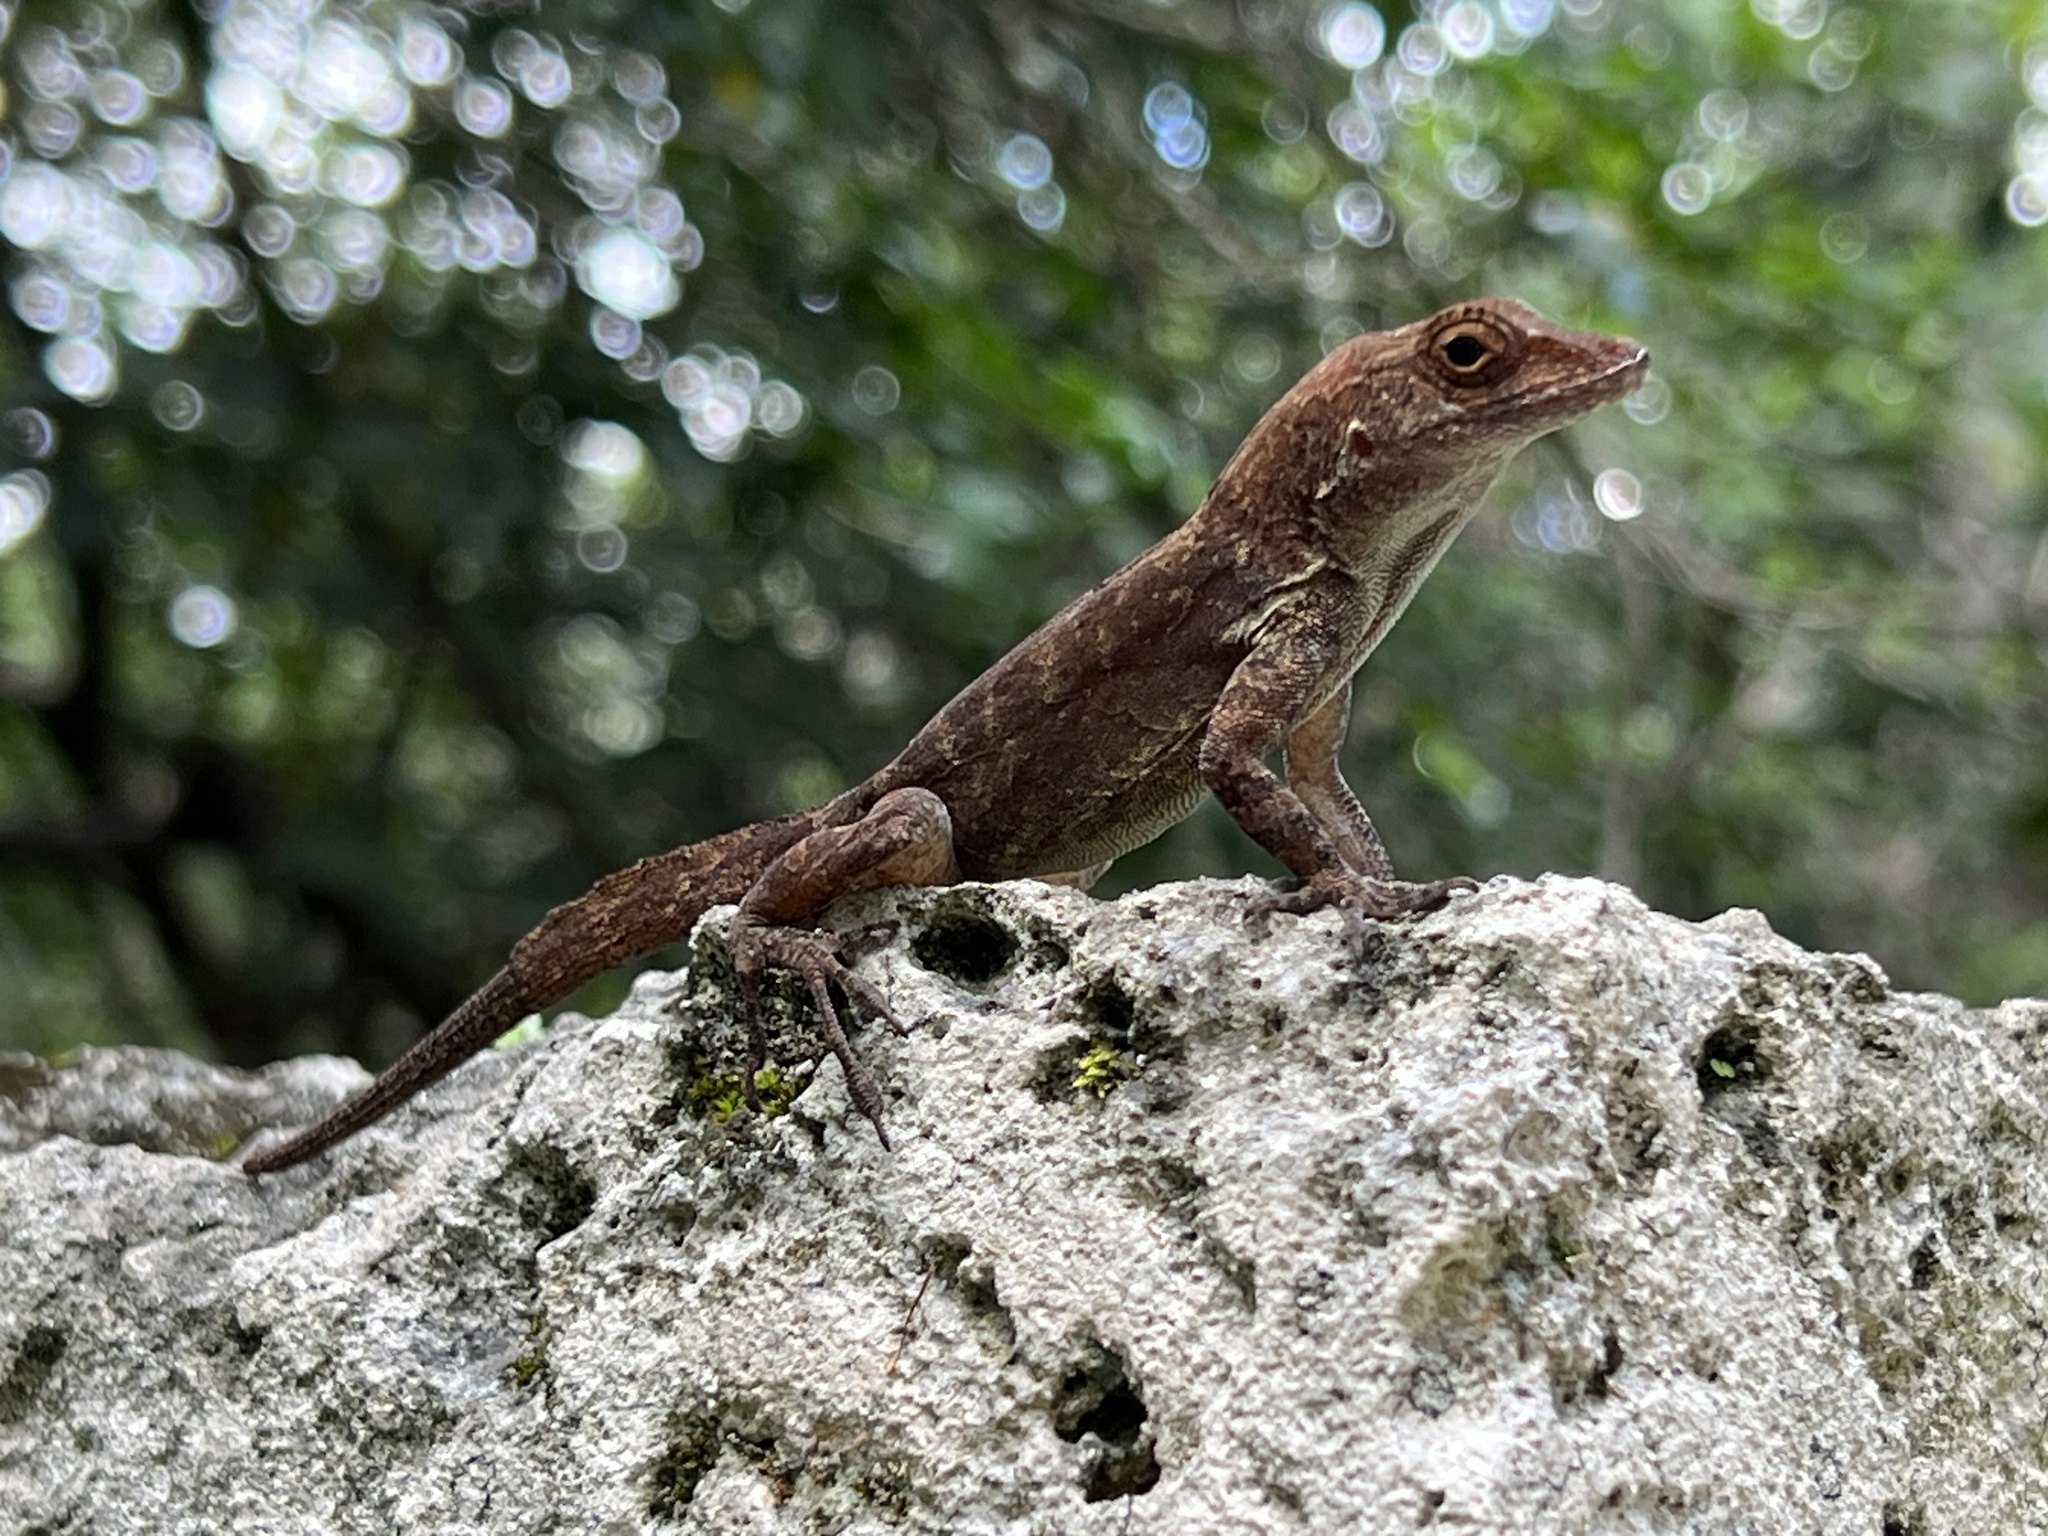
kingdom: Animalia
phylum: Chordata
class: Squamata
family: Dactyloidae
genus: Anolis
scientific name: Anolis cristatellus
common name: Crested anole
